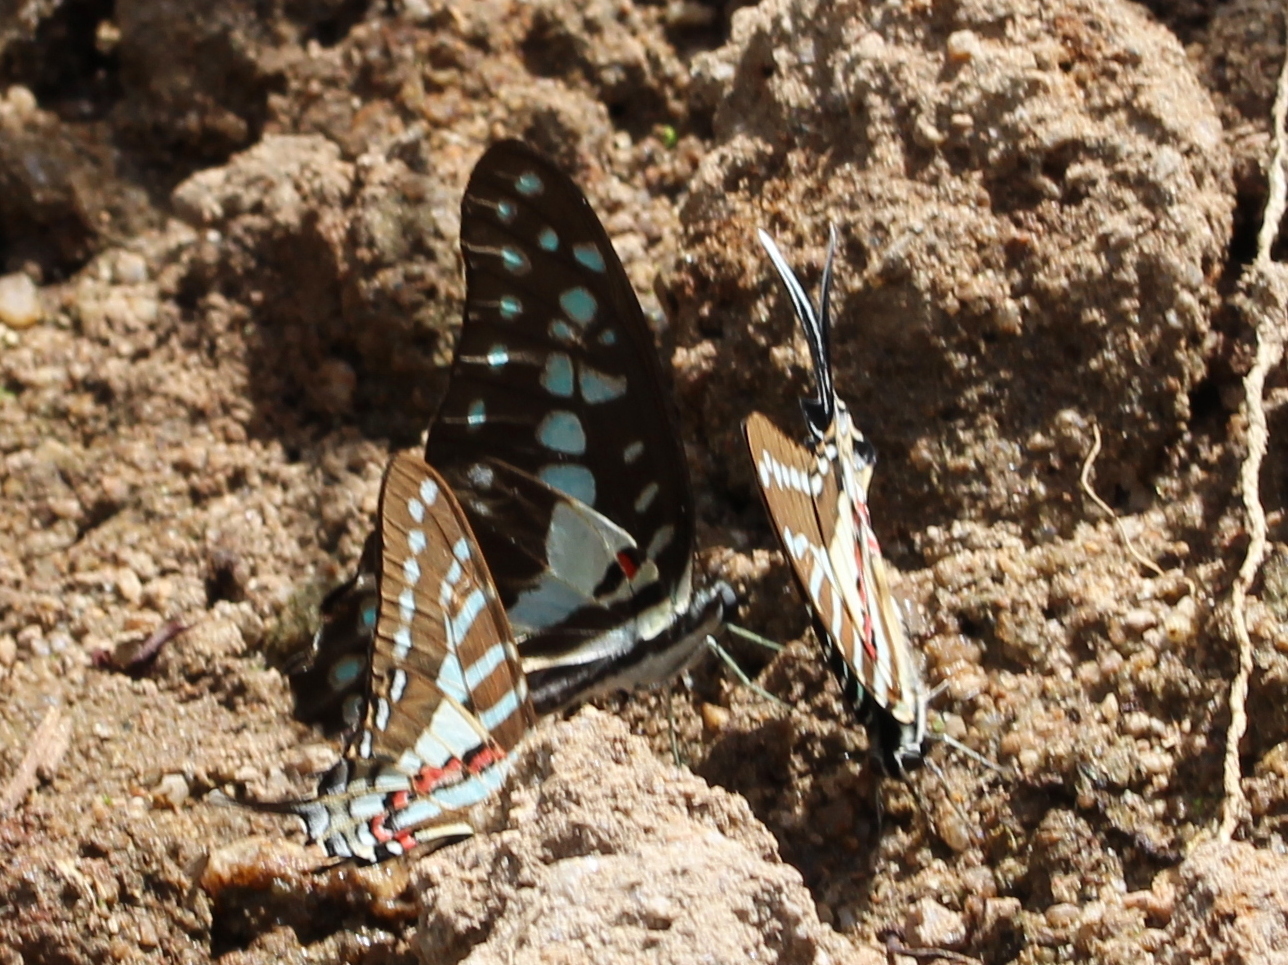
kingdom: Animalia
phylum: Arthropoda
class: Insecta
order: Lepidoptera
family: Papilionidae
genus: Graphium
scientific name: Graphium doson
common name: Common jay
